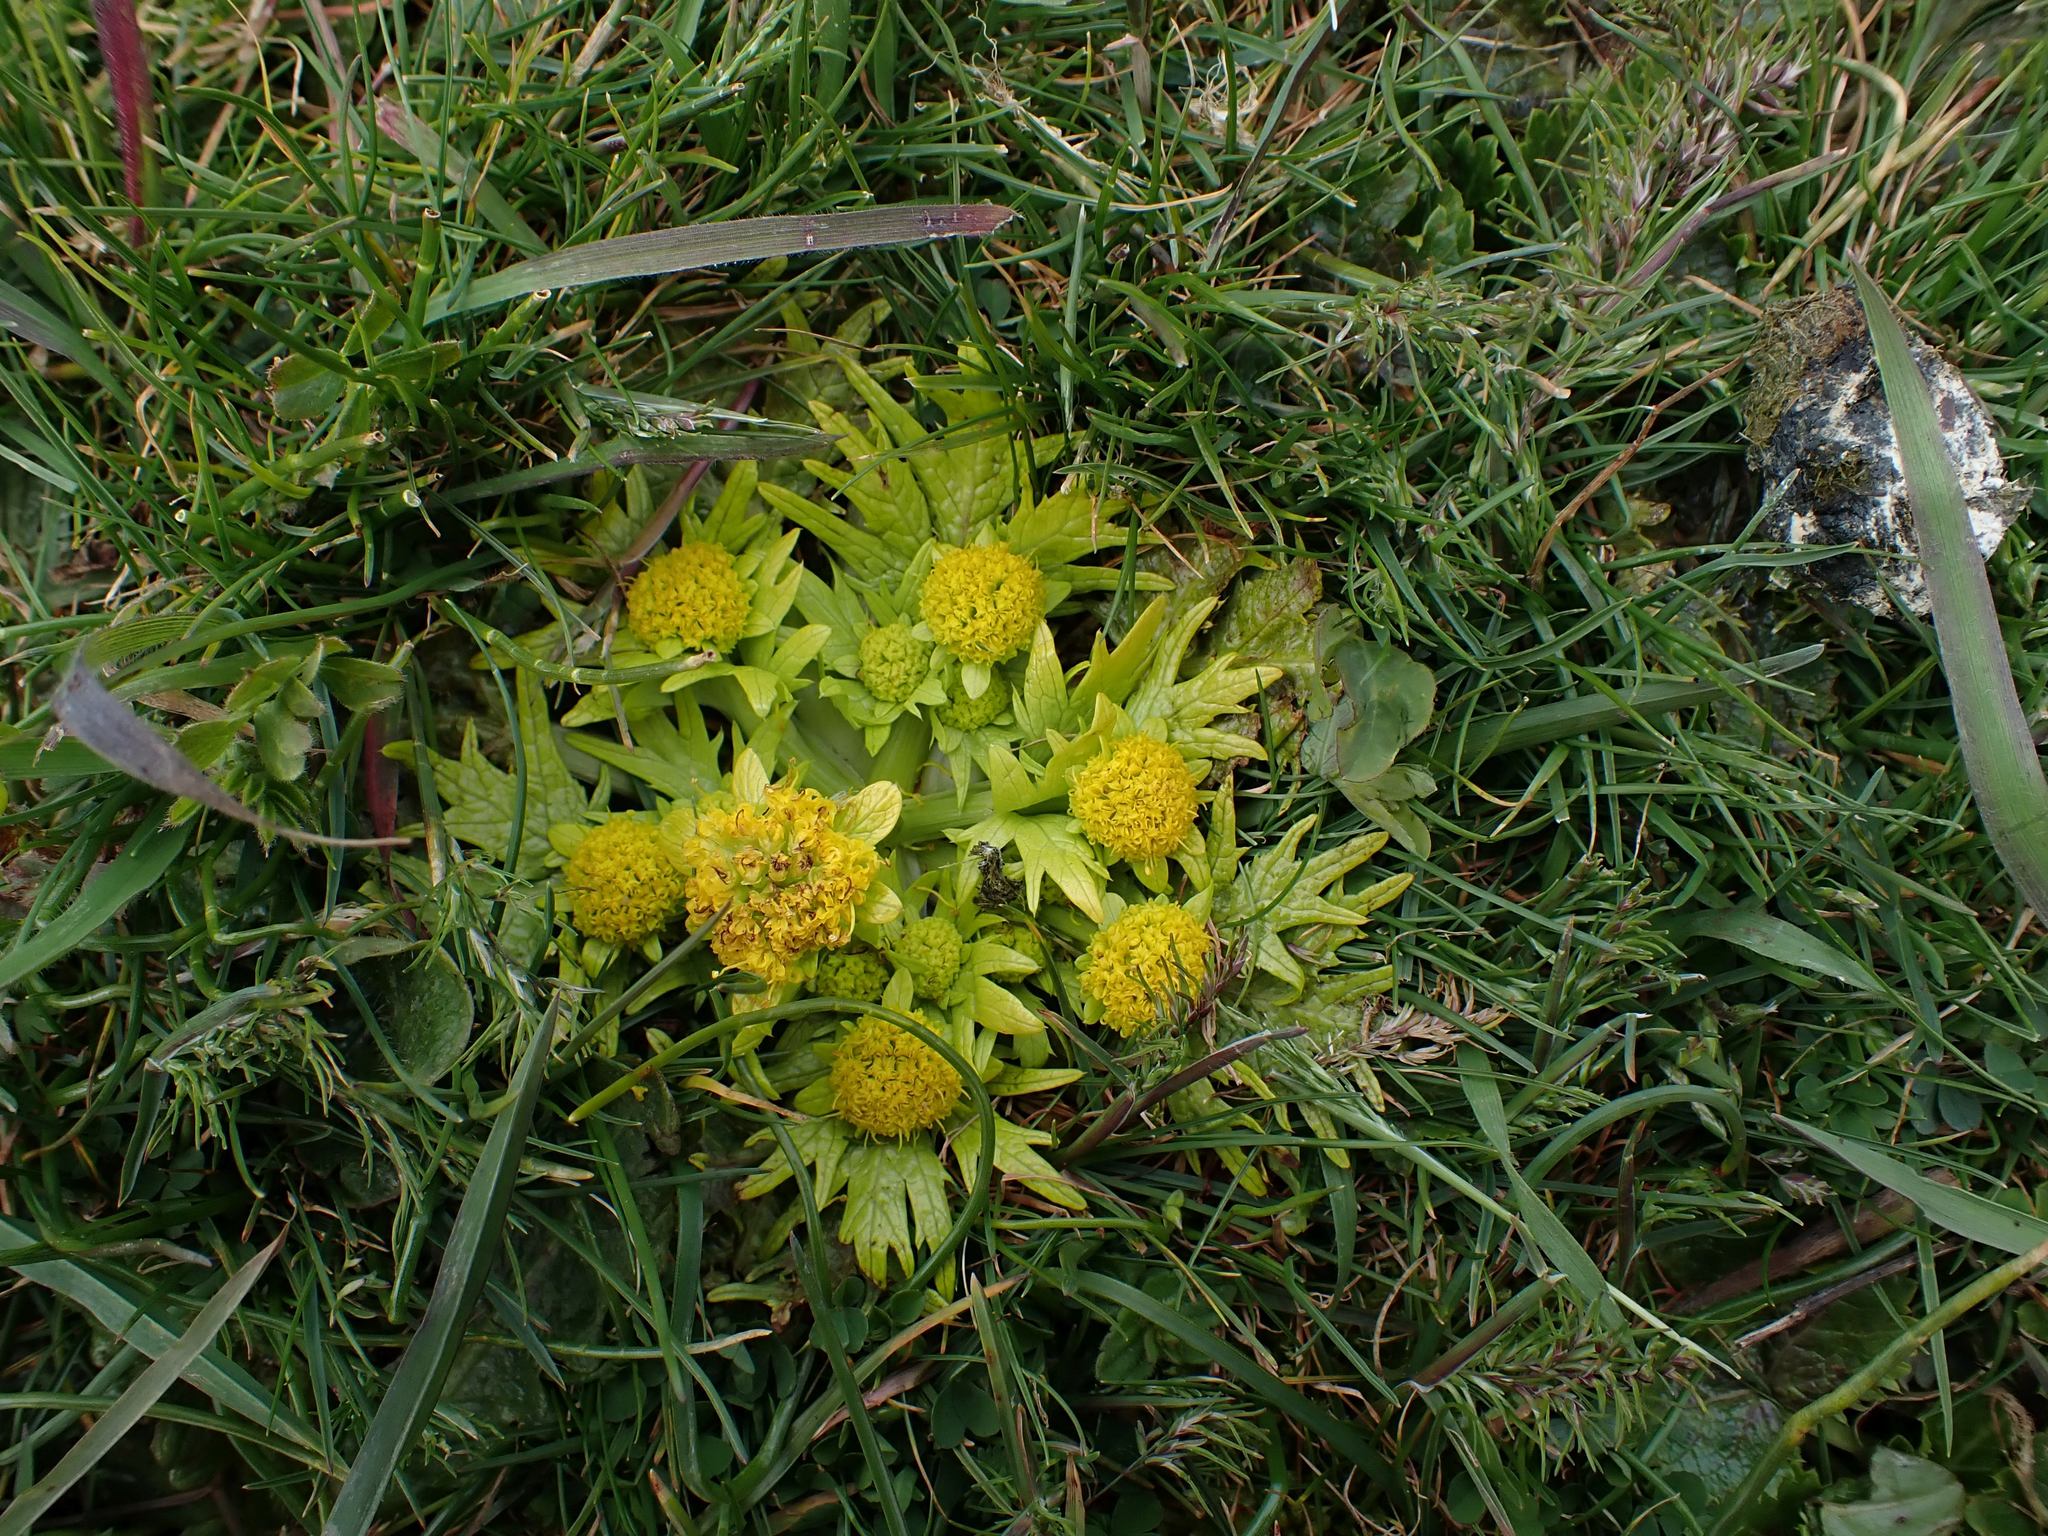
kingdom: Plantae
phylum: Tracheophyta
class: Magnoliopsida
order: Apiales
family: Apiaceae
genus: Sanicula
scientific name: Sanicula arctopoides
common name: Footsteps-of-spring
